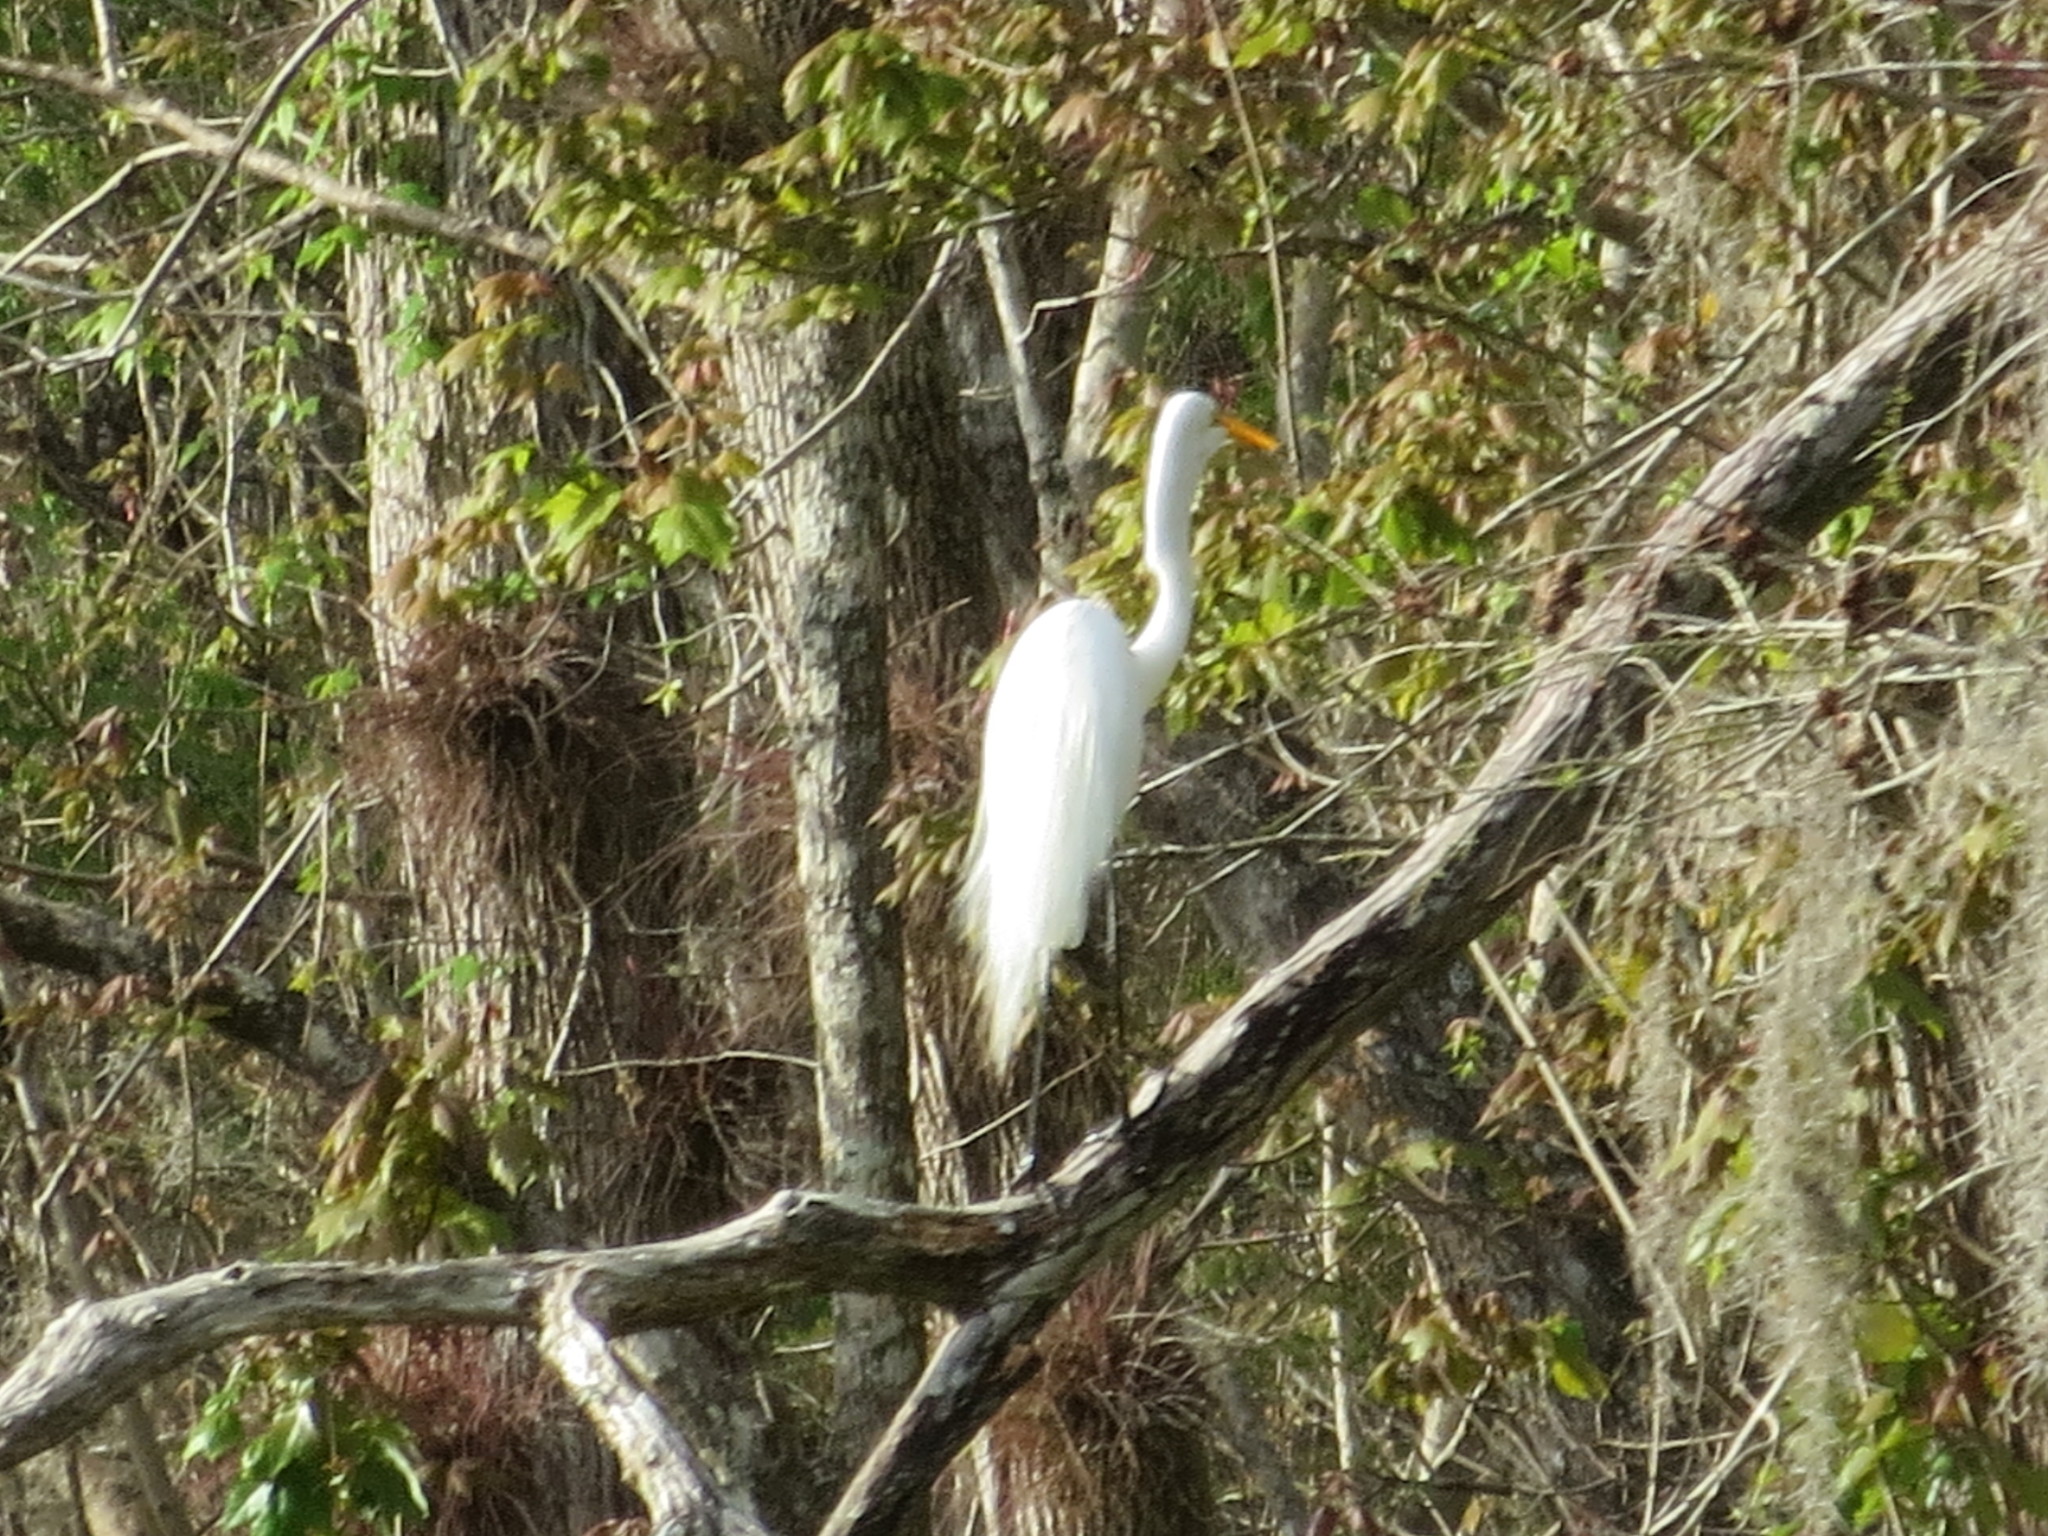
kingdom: Animalia
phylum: Chordata
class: Aves
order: Pelecaniformes
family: Ardeidae
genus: Ardea
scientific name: Ardea alba
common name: Great egret
